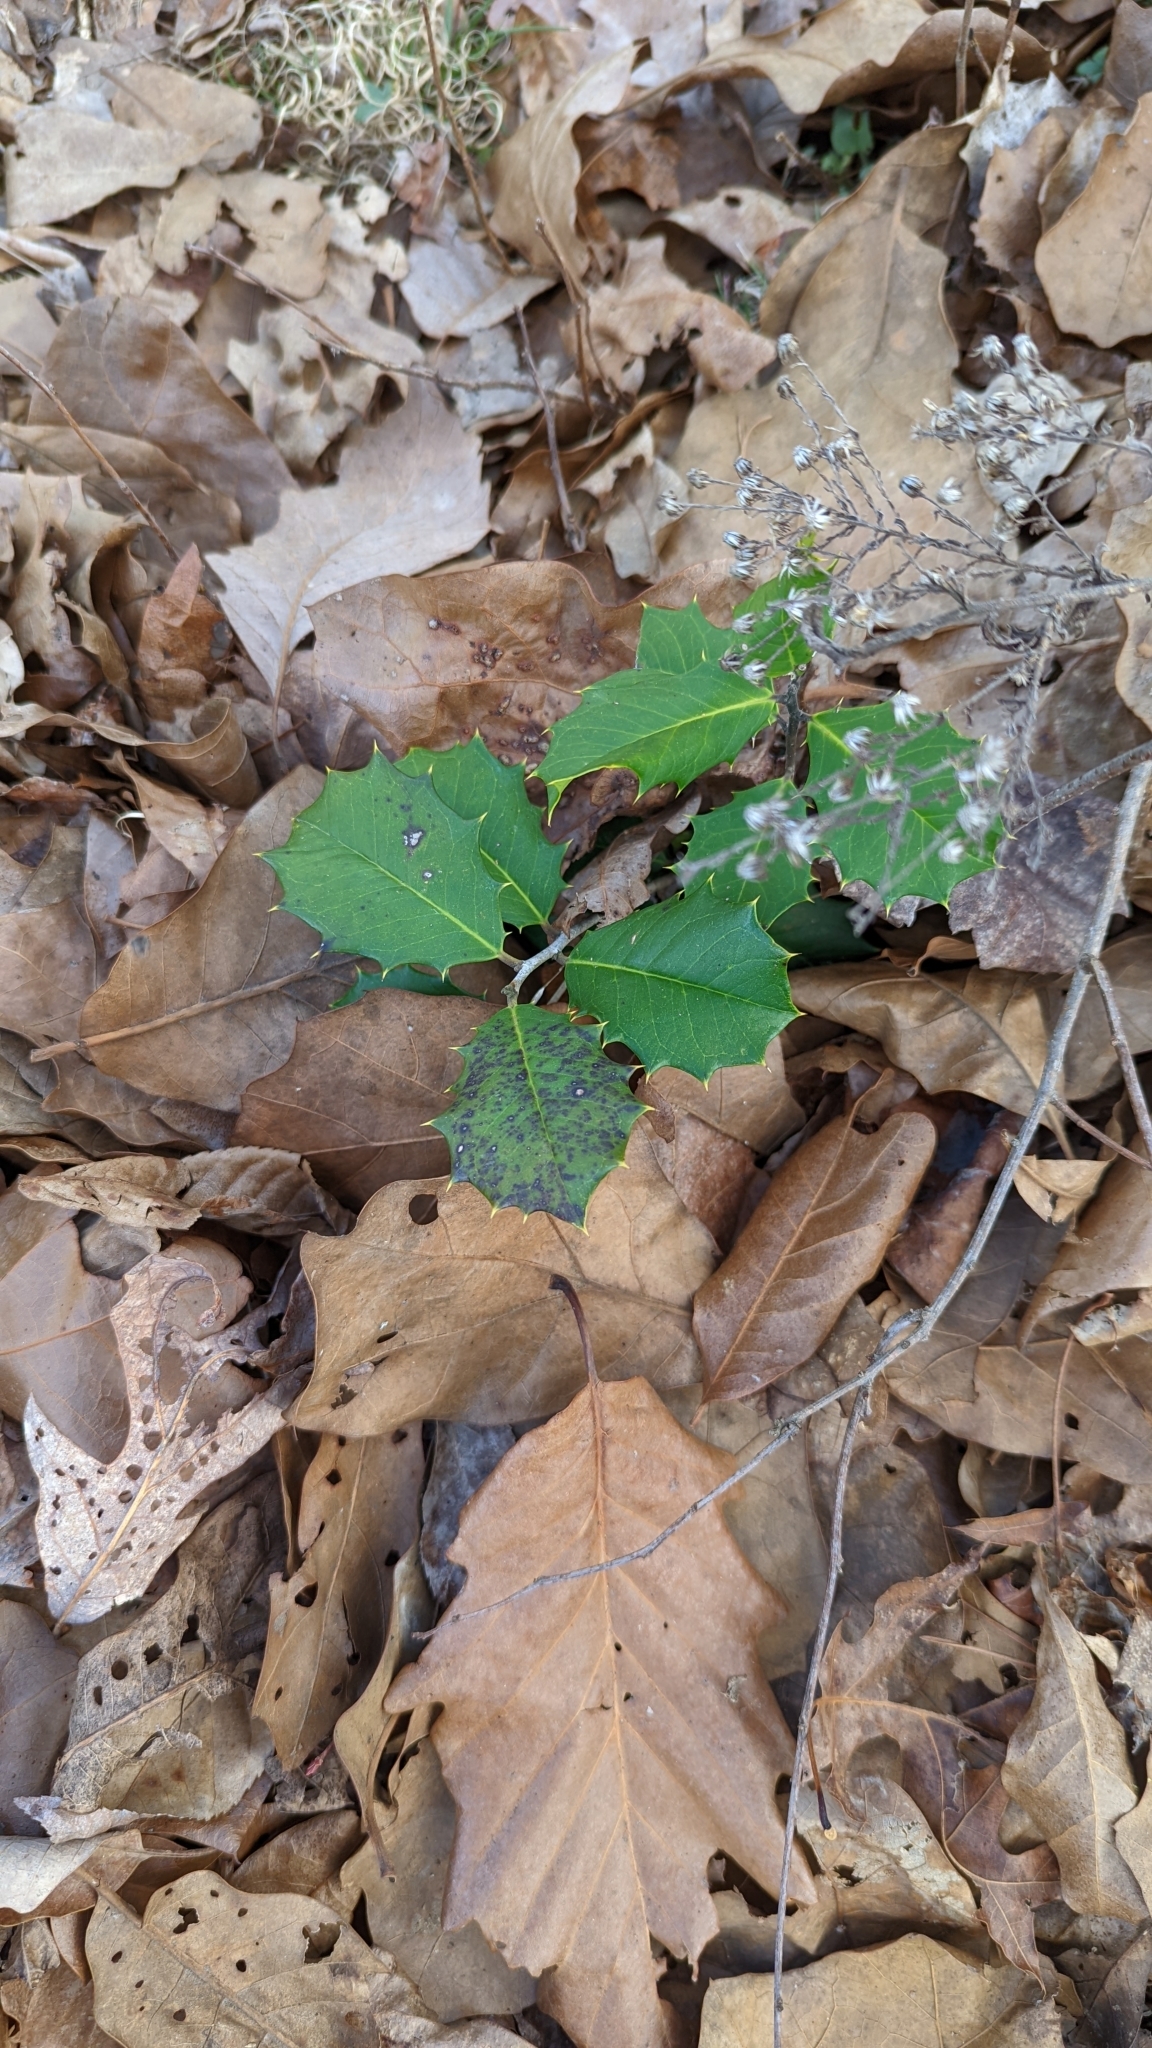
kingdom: Plantae
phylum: Tracheophyta
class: Magnoliopsida
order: Aquifoliales
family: Aquifoliaceae
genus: Ilex
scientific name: Ilex opaca
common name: American holly
